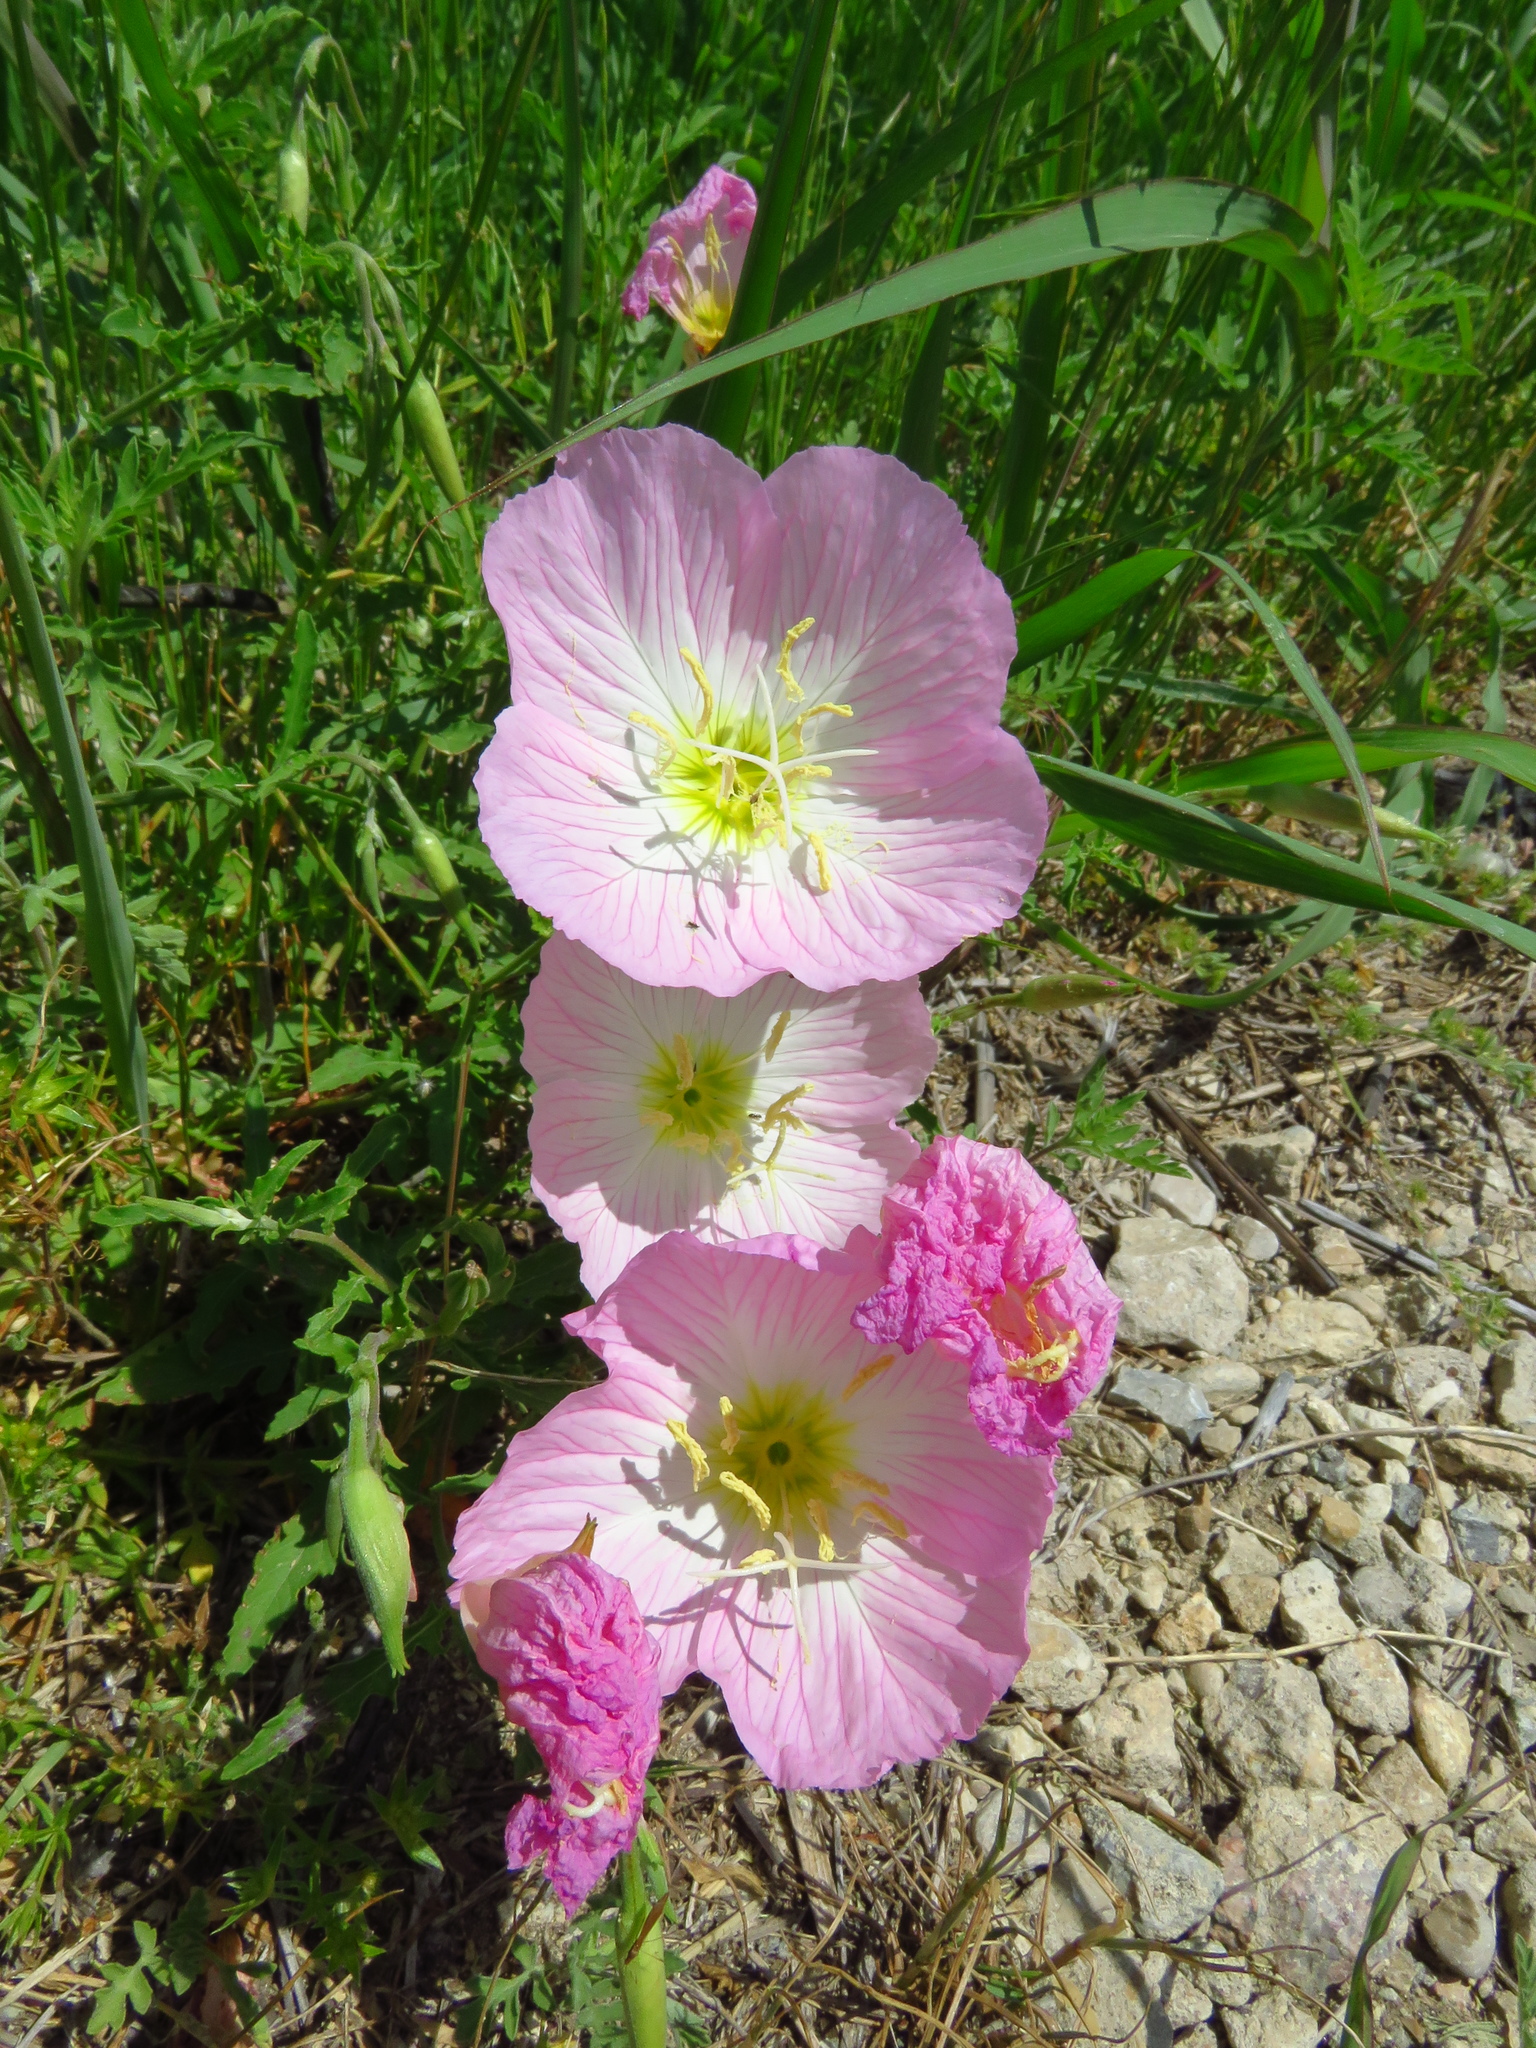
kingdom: Plantae
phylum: Tracheophyta
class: Magnoliopsida
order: Myrtales
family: Onagraceae
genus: Oenothera
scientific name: Oenothera speciosa
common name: White evening-primrose
